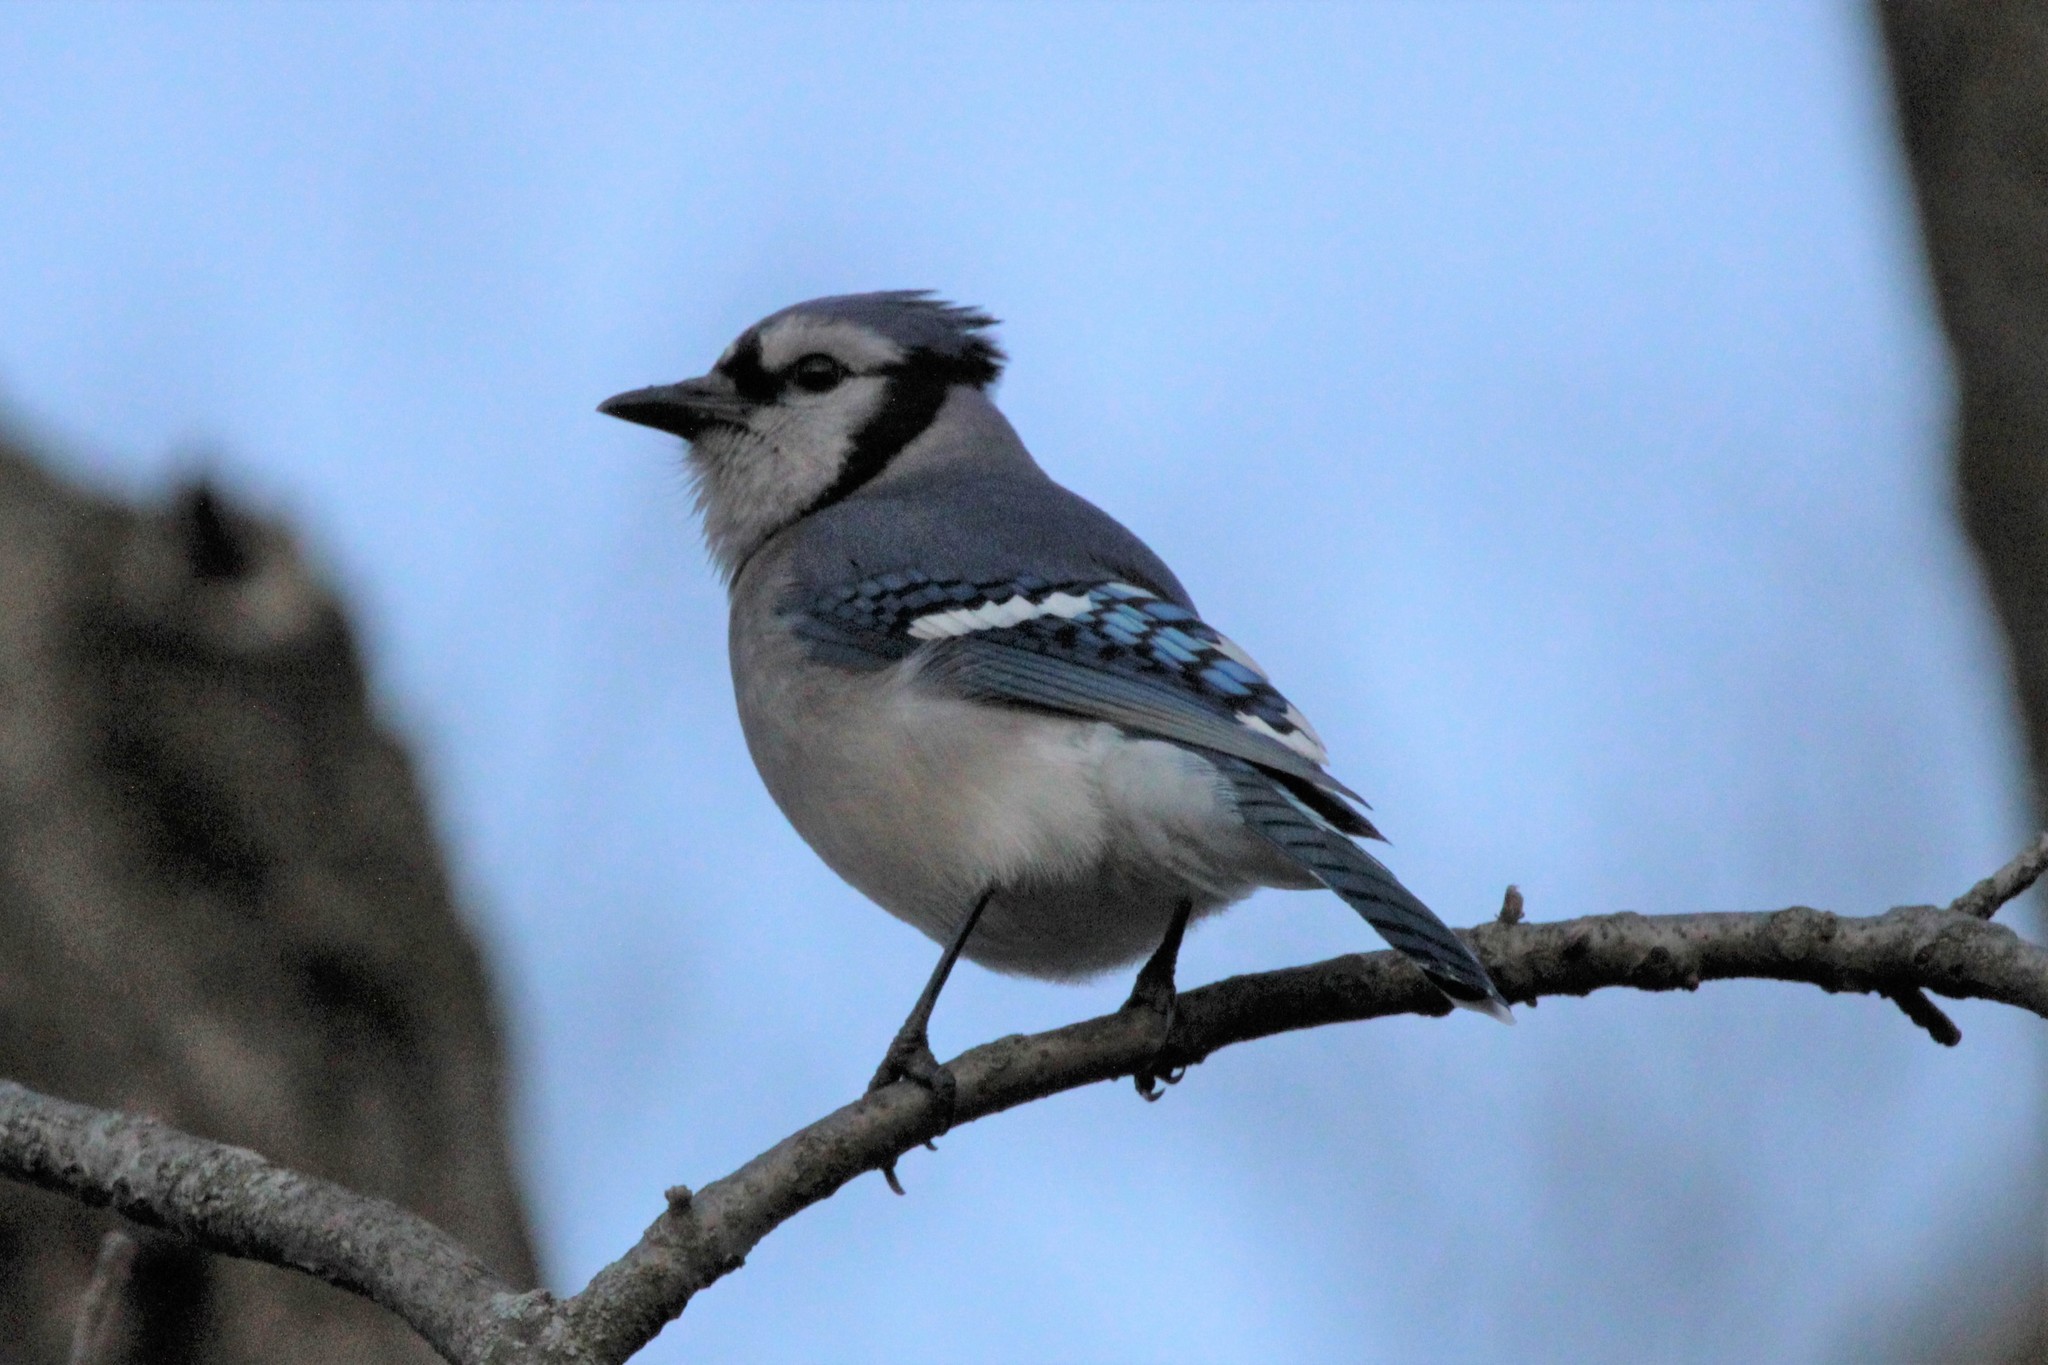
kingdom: Animalia
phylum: Chordata
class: Aves
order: Passeriformes
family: Corvidae
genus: Cyanocitta
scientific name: Cyanocitta cristata
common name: Blue jay
